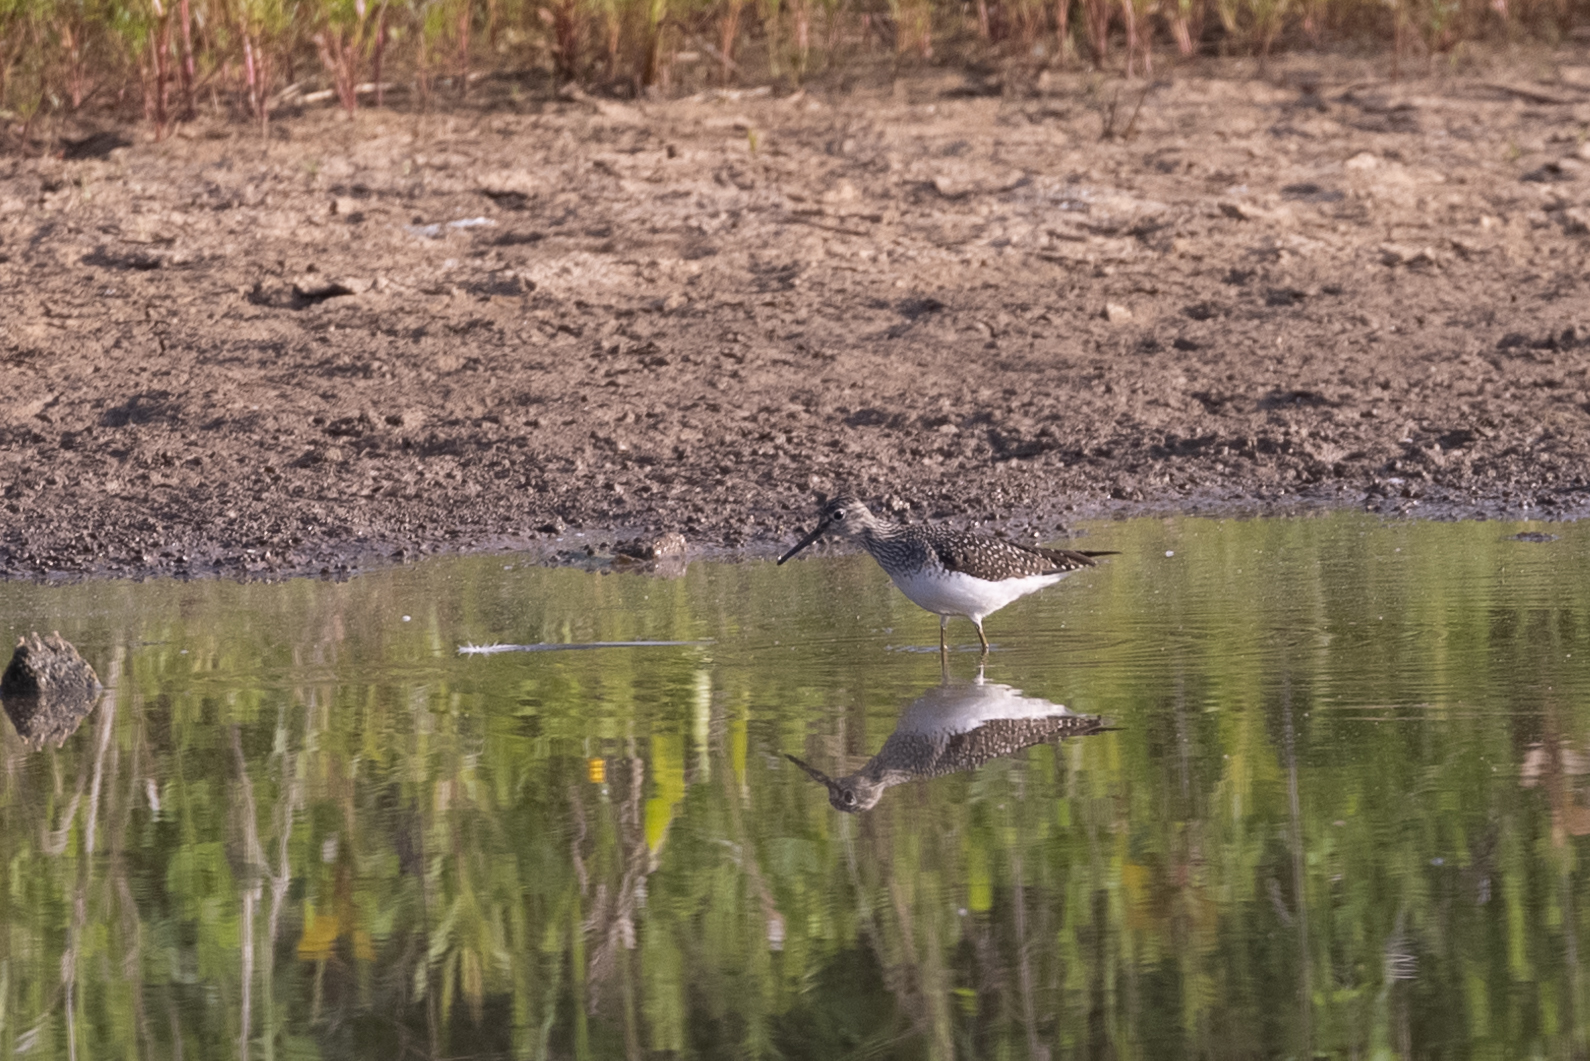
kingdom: Animalia
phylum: Chordata
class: Aves
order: Charadriiformes
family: Scolopacidae
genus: Tringa
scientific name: Tringa solitaria
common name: Solitary sandpiper
